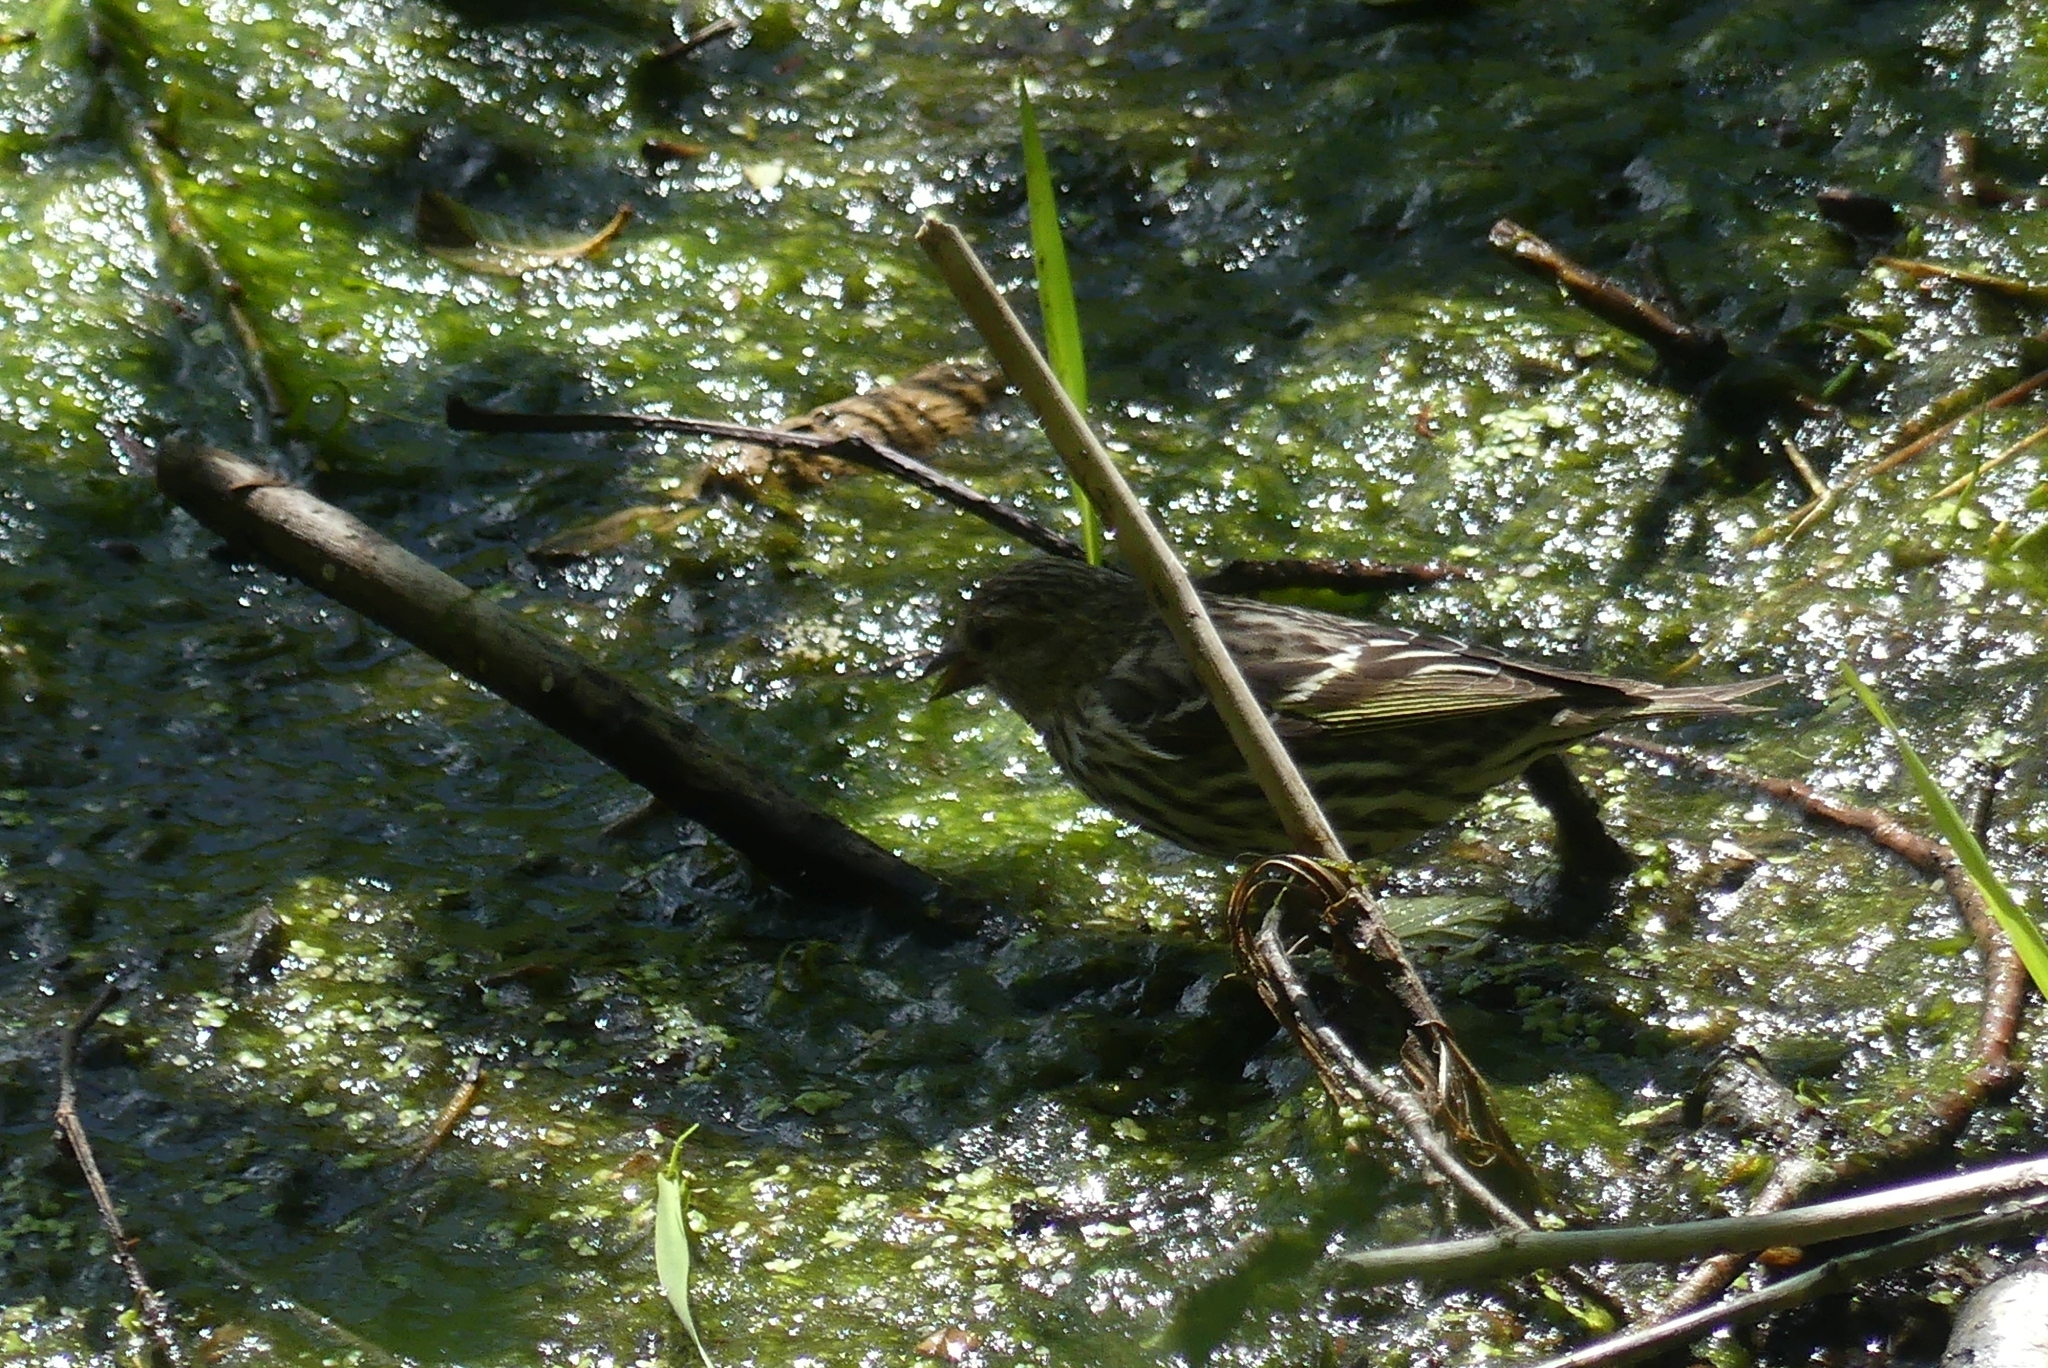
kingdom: Animalia
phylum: Chordata
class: Aves
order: Passeriformes
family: Fringillidae
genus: Spinus
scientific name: Spinus pinus
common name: Pine siskin
